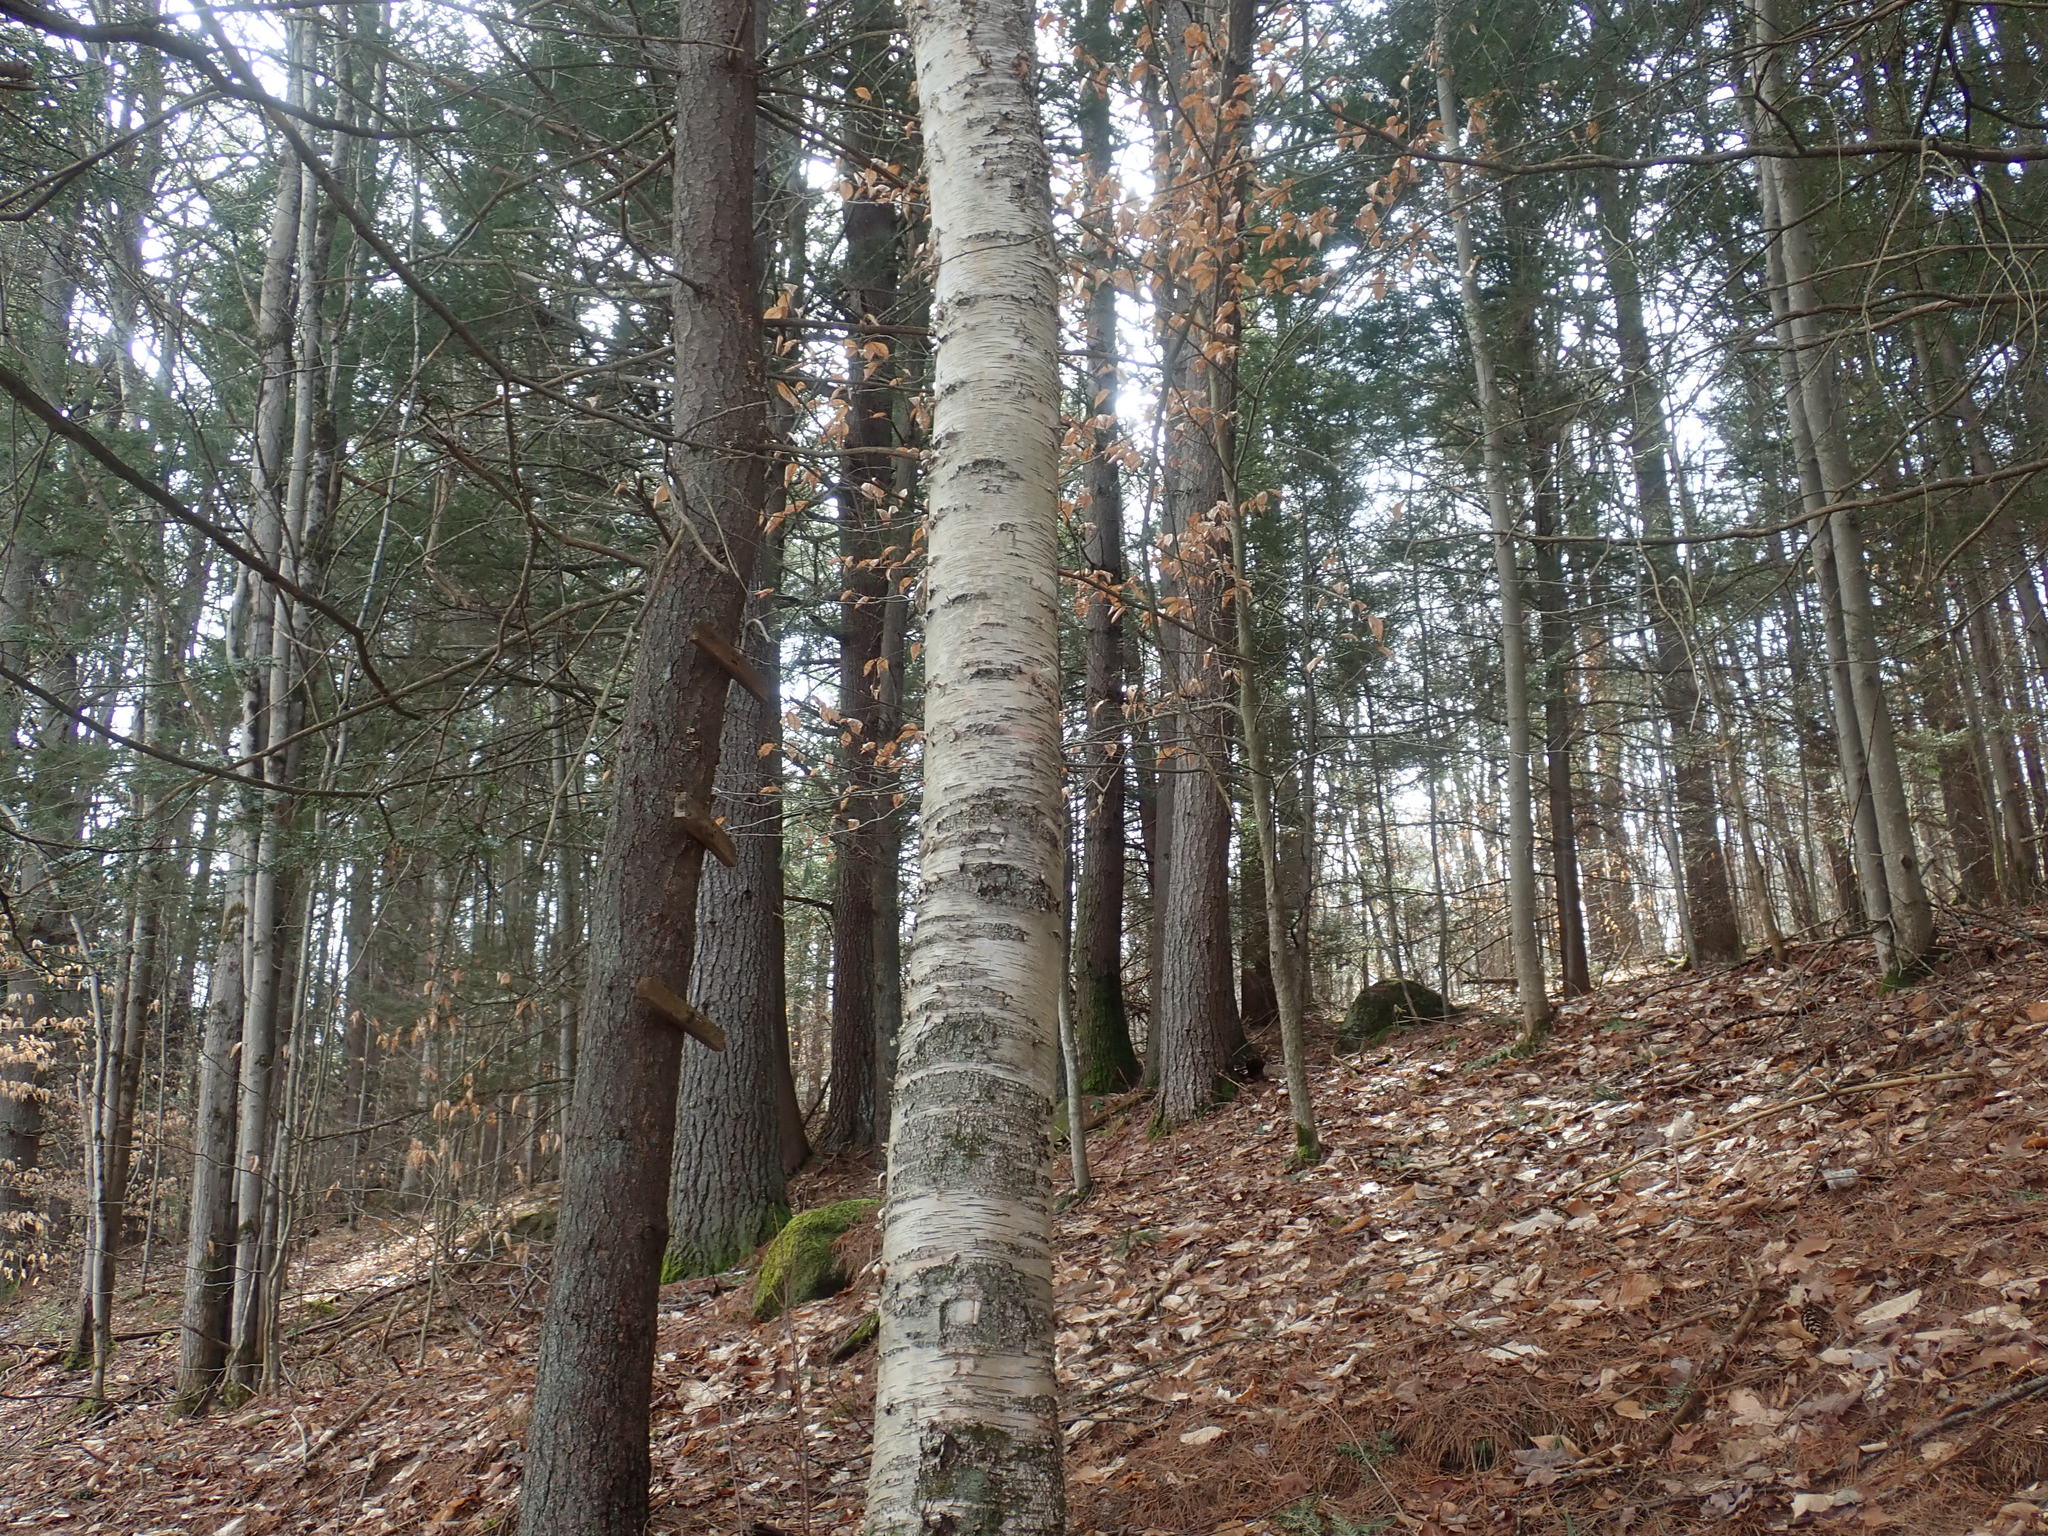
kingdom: Plantae
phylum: Tracheophyta
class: Magnoliopsida
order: Fagales
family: Betulaceae
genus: Betula
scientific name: Betula papyrifera
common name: Paper birch
